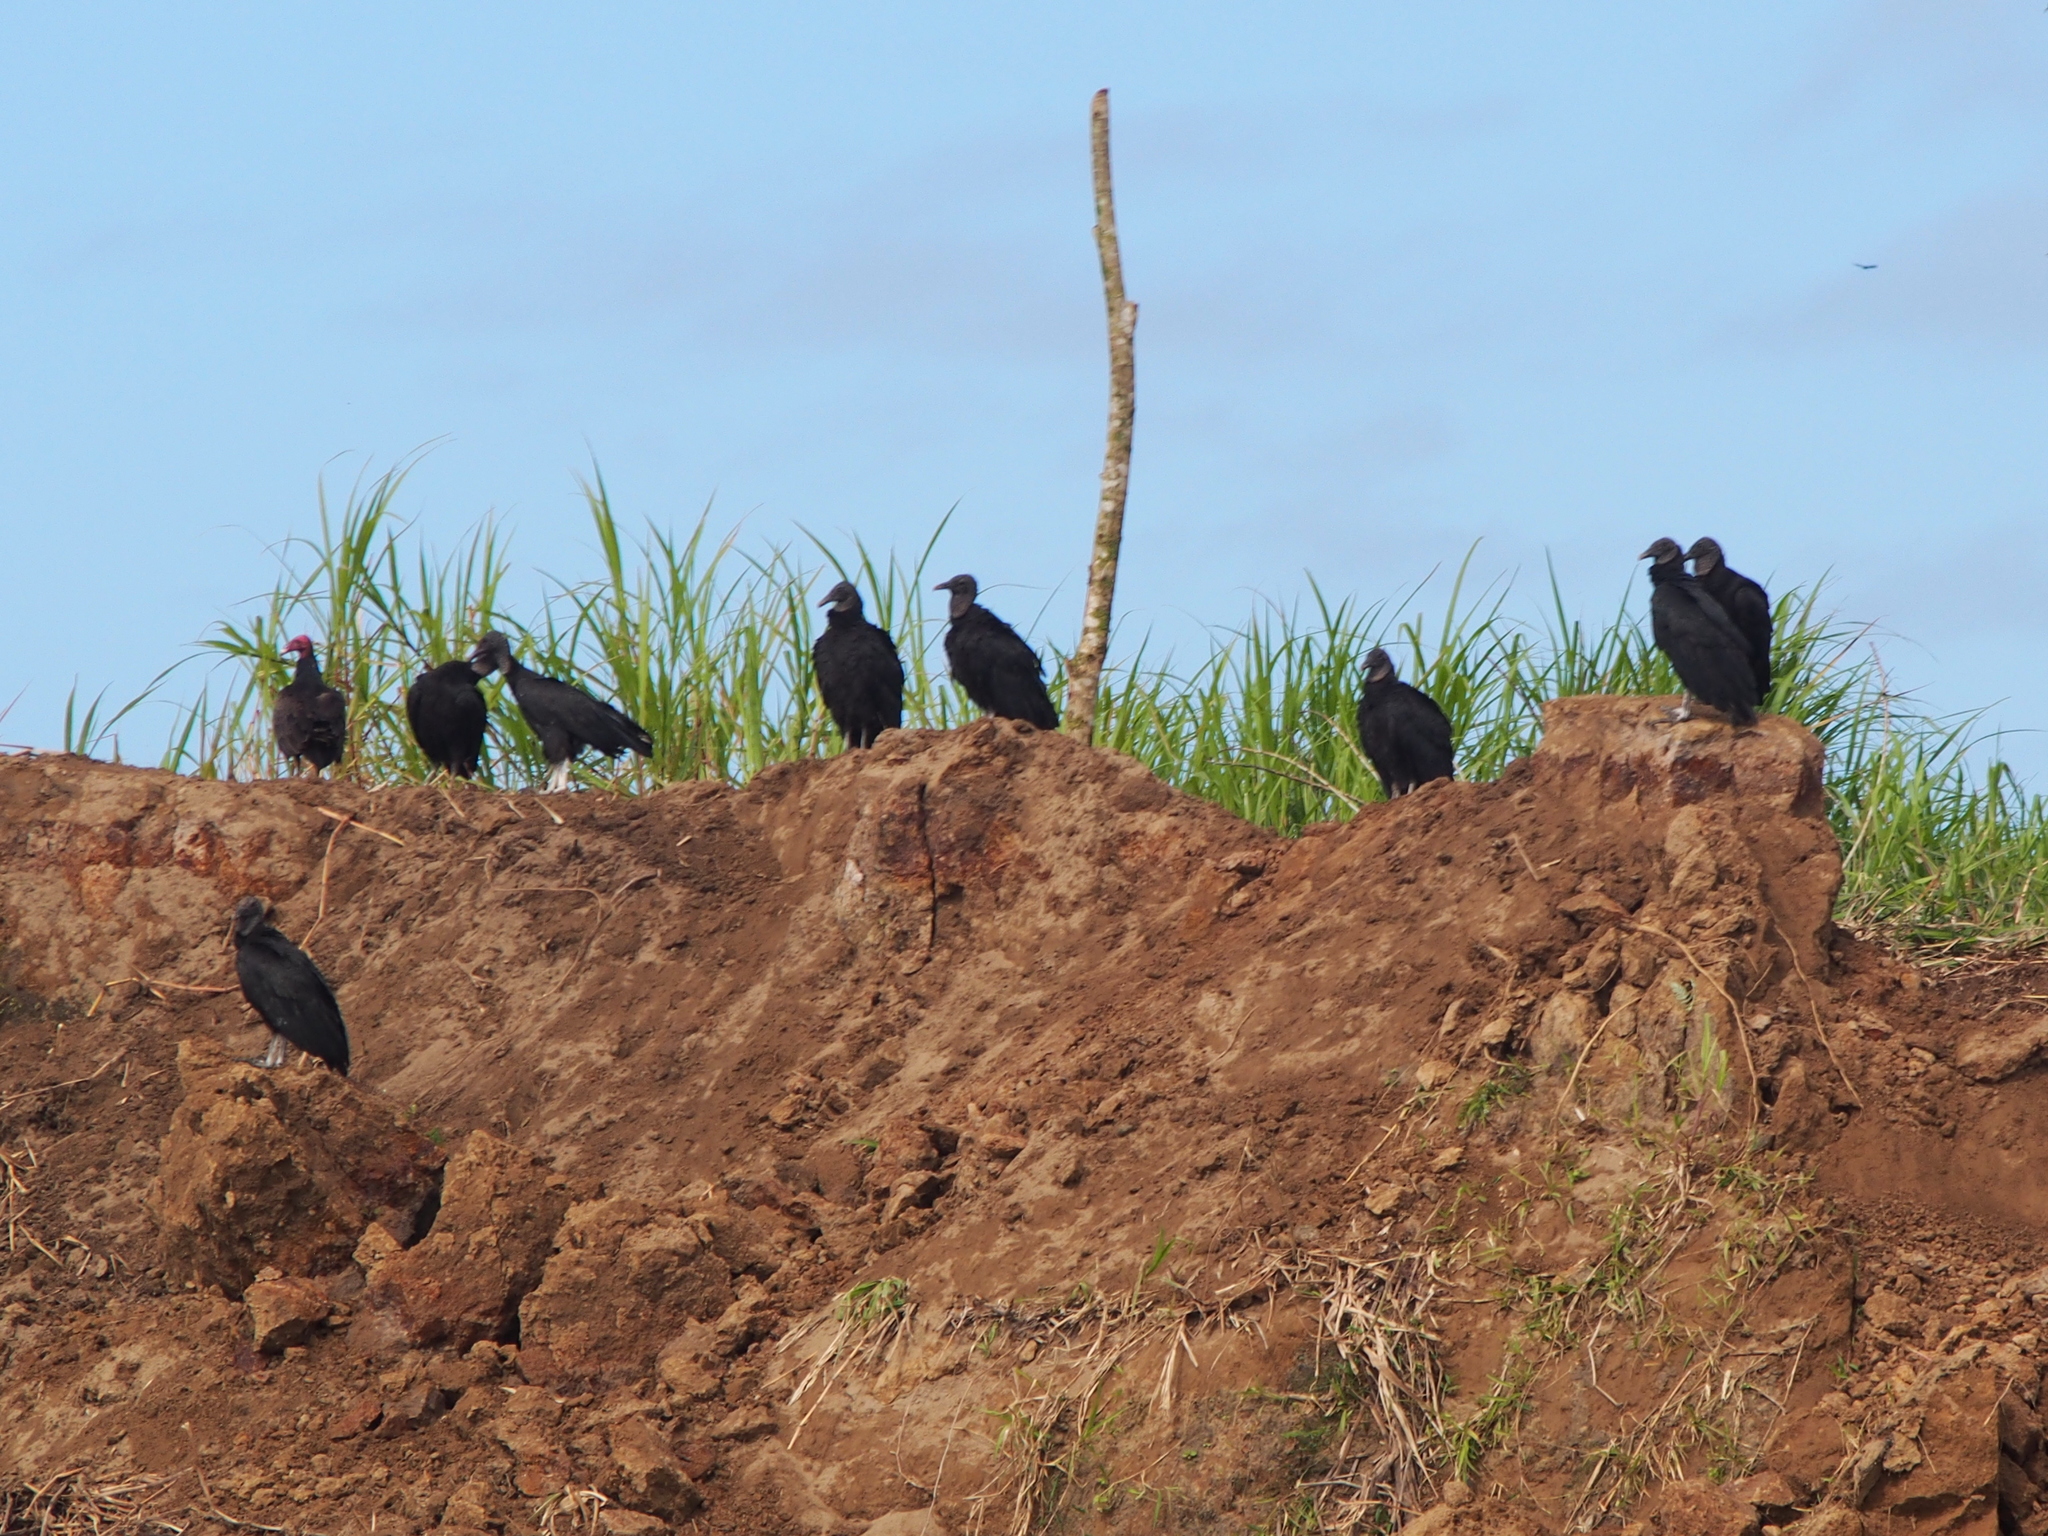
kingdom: Animalia
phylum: Chordata
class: Aves
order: Accipitriformes
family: Cathartidae
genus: Coragyps
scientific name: Coragyps atratus
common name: Black vulture
